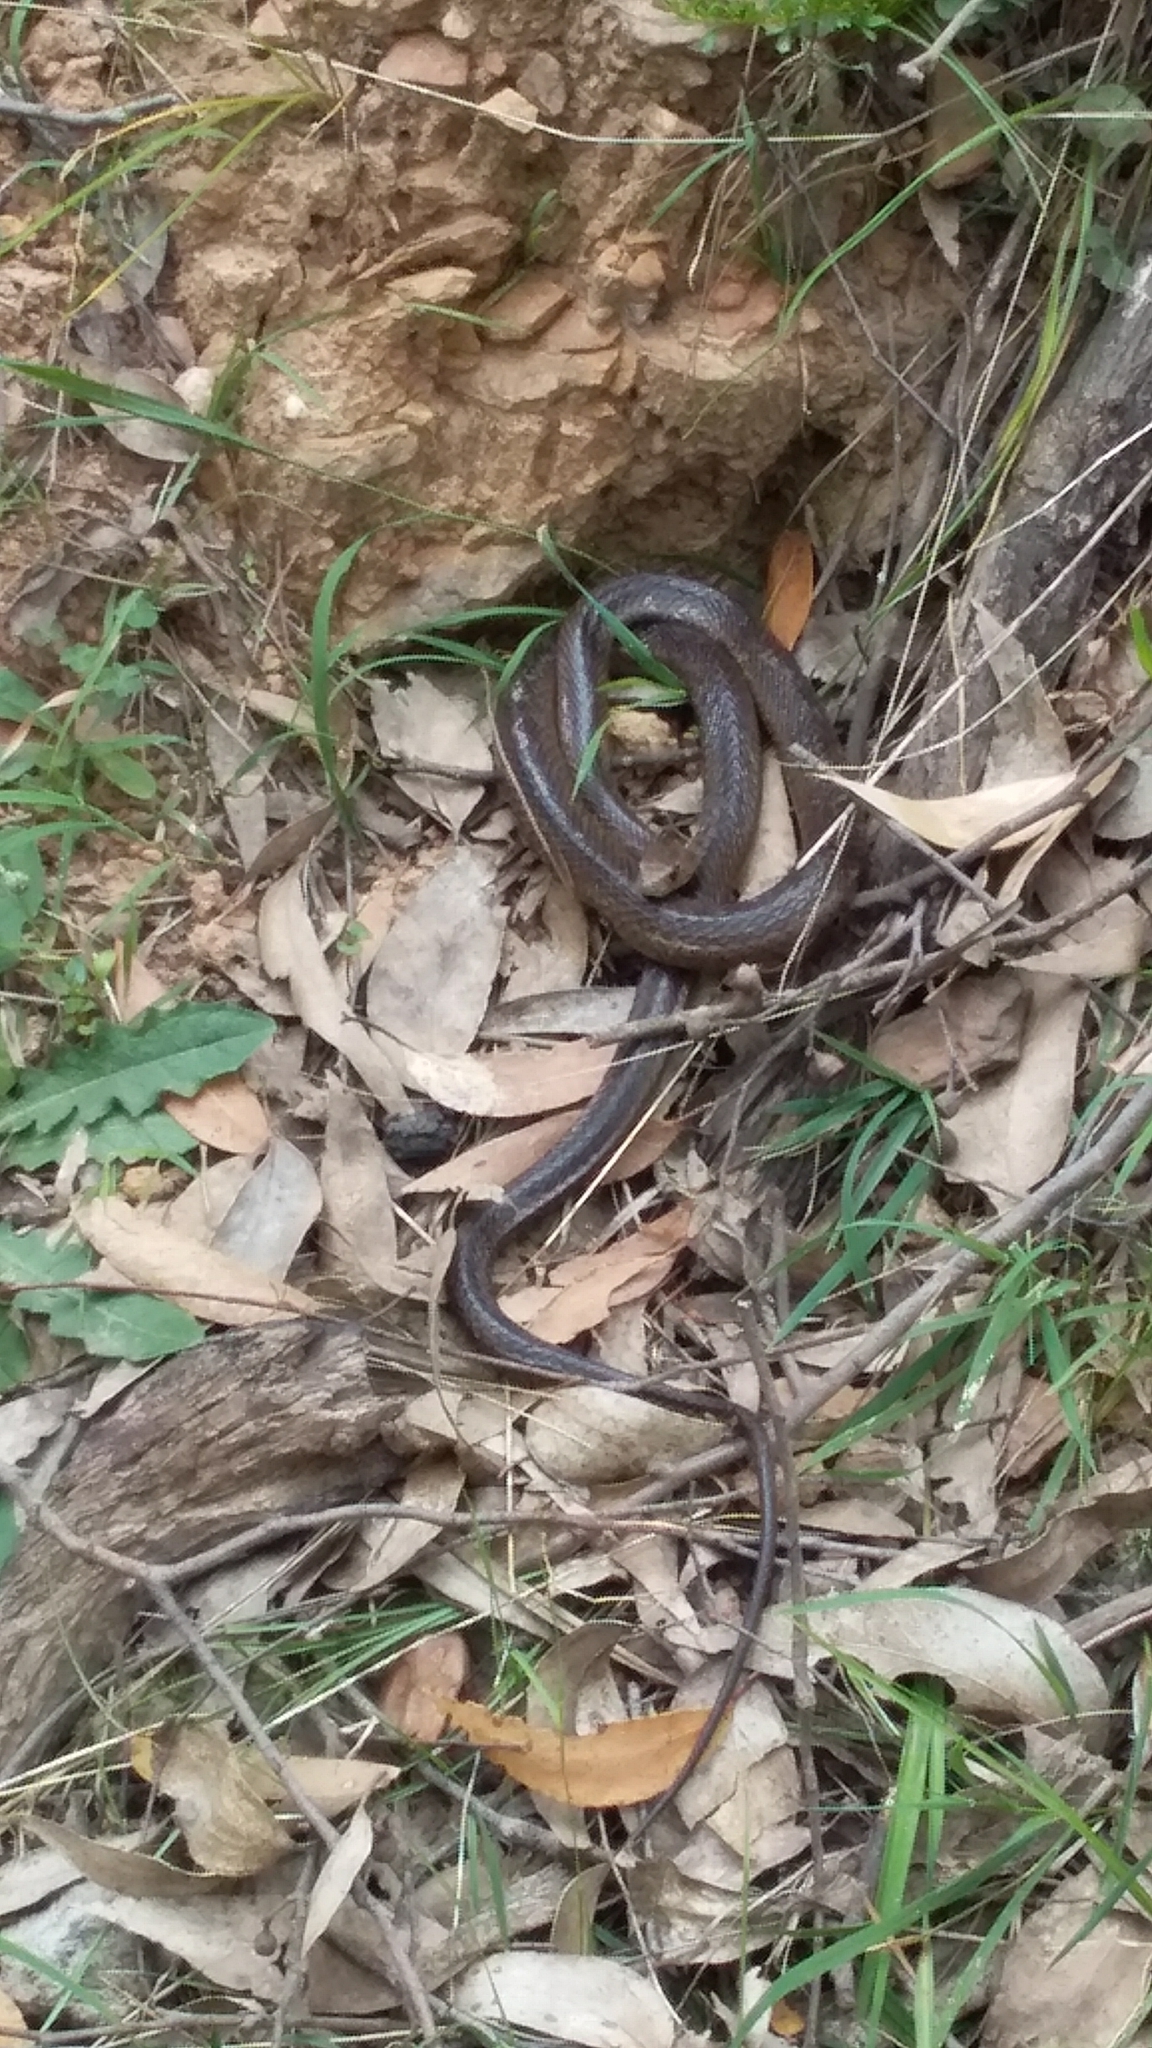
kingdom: Animalia
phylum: Chordata
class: Squamata
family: Elapidae
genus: Pseudonaja
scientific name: Pseudonaja textilis
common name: Eastern brown snake
